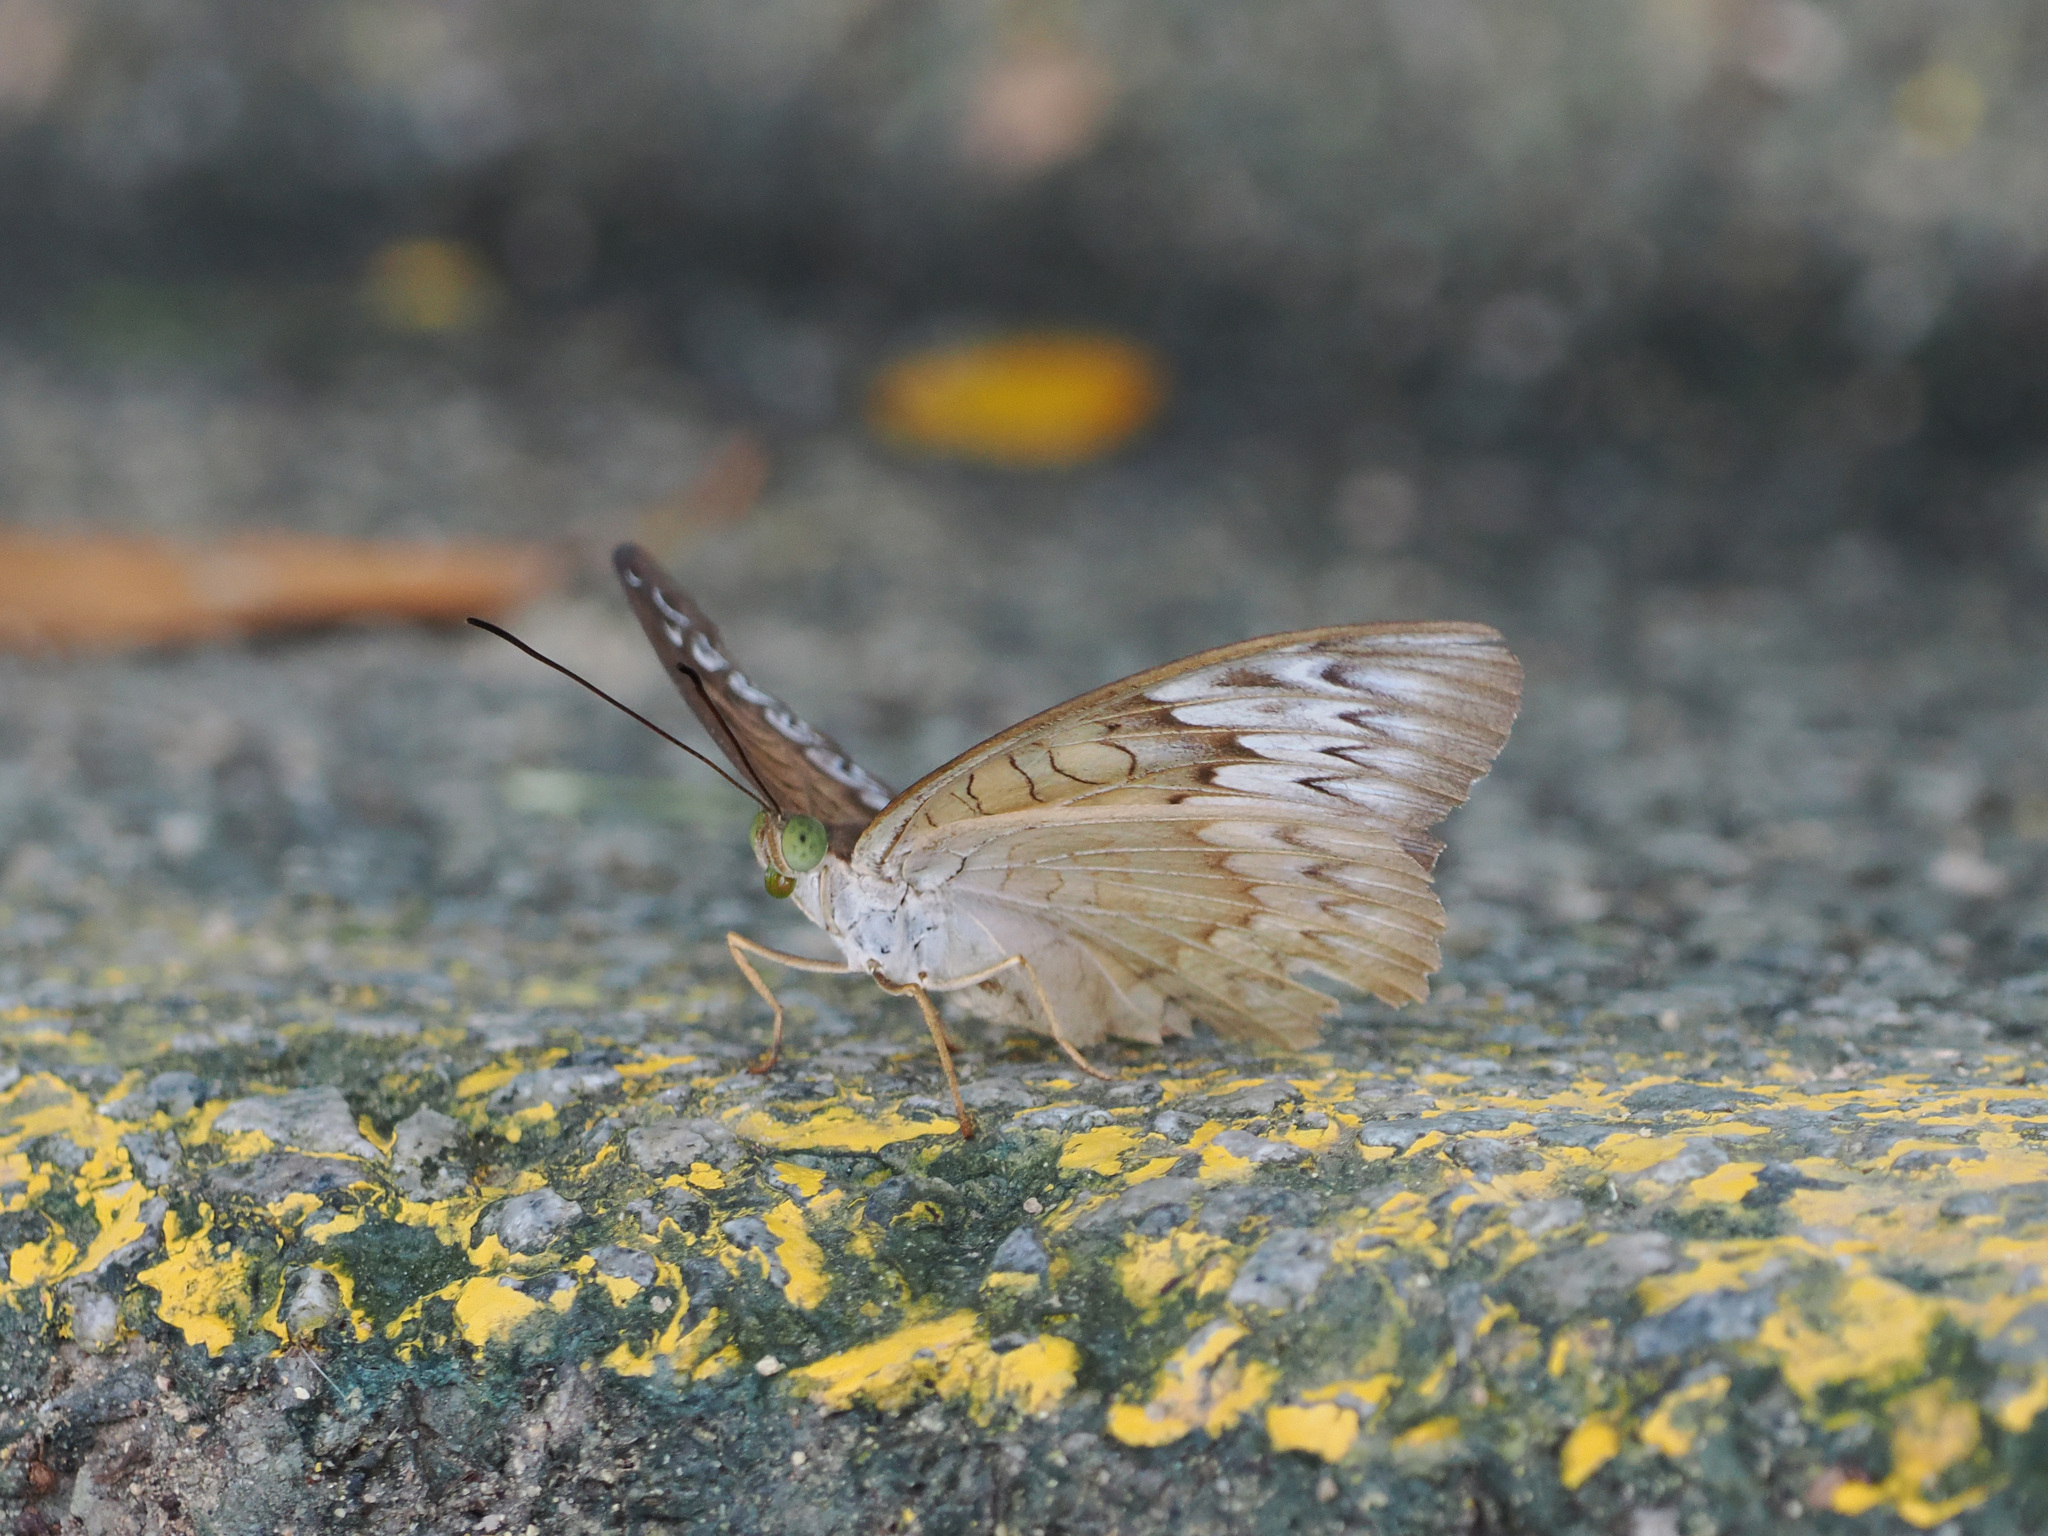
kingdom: Animalia
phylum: Arthropoda
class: Insecta
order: Lepidoptera
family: Nymphalidae
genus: Tanaecia
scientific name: Tanaecia pelea
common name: Malay viscount
